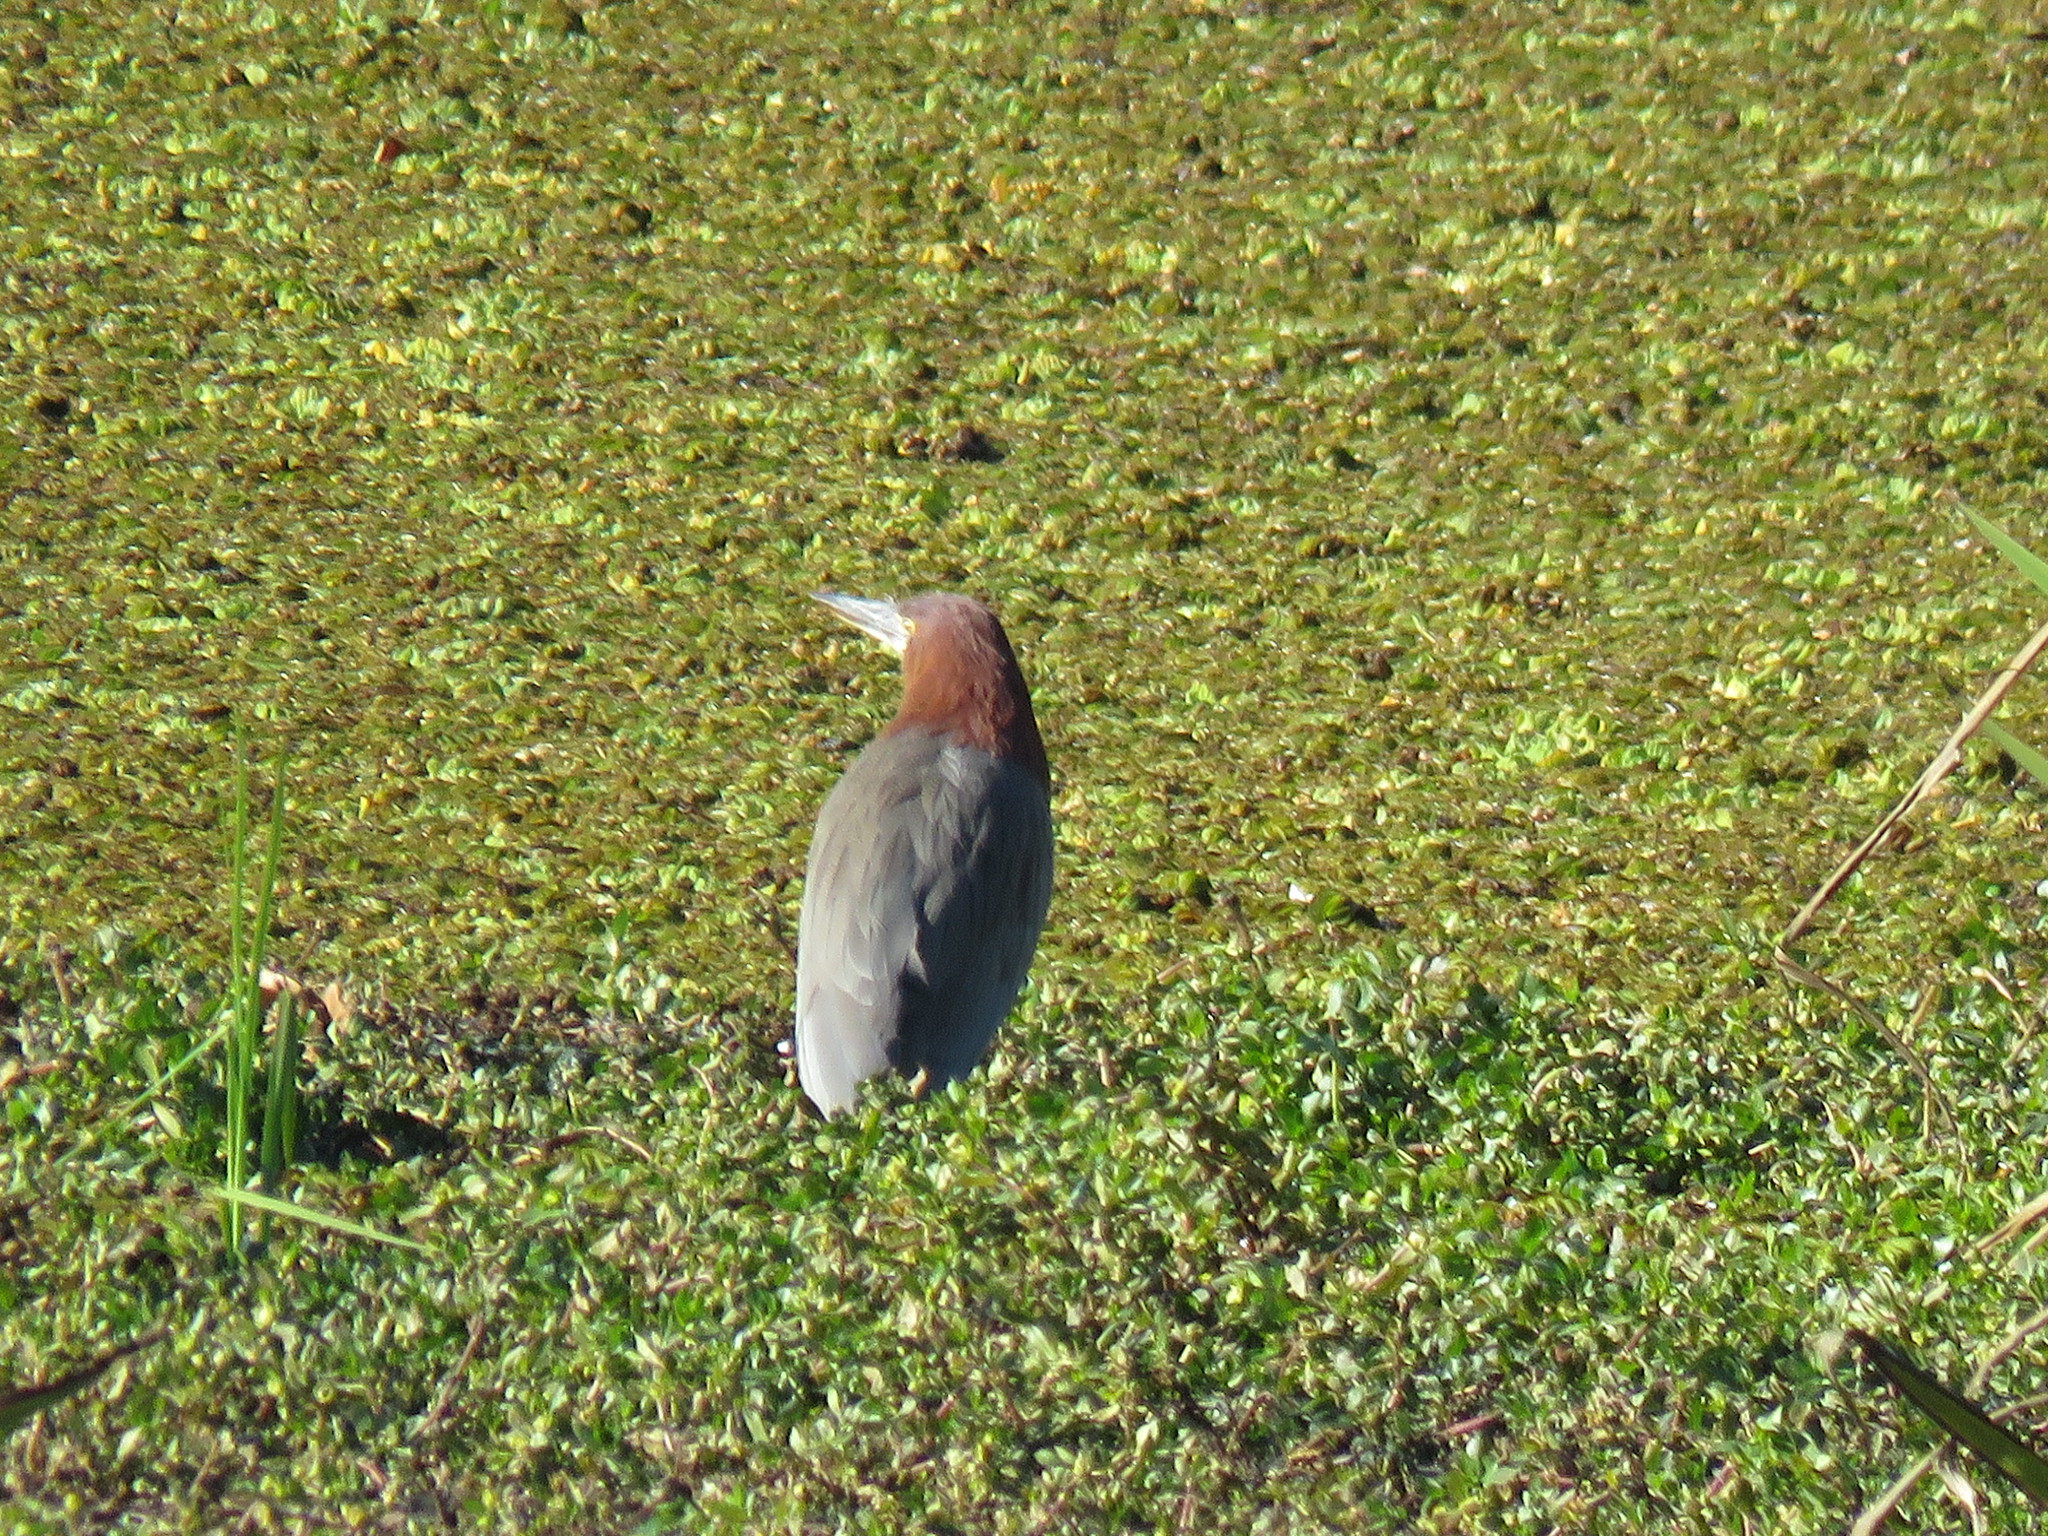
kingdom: Animalia
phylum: Chordata
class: Aves
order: Pelecaniformes
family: Ardeidae
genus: Tigrisoma
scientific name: Tigrisoma lineatum
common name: Rufescent tiger-heron
